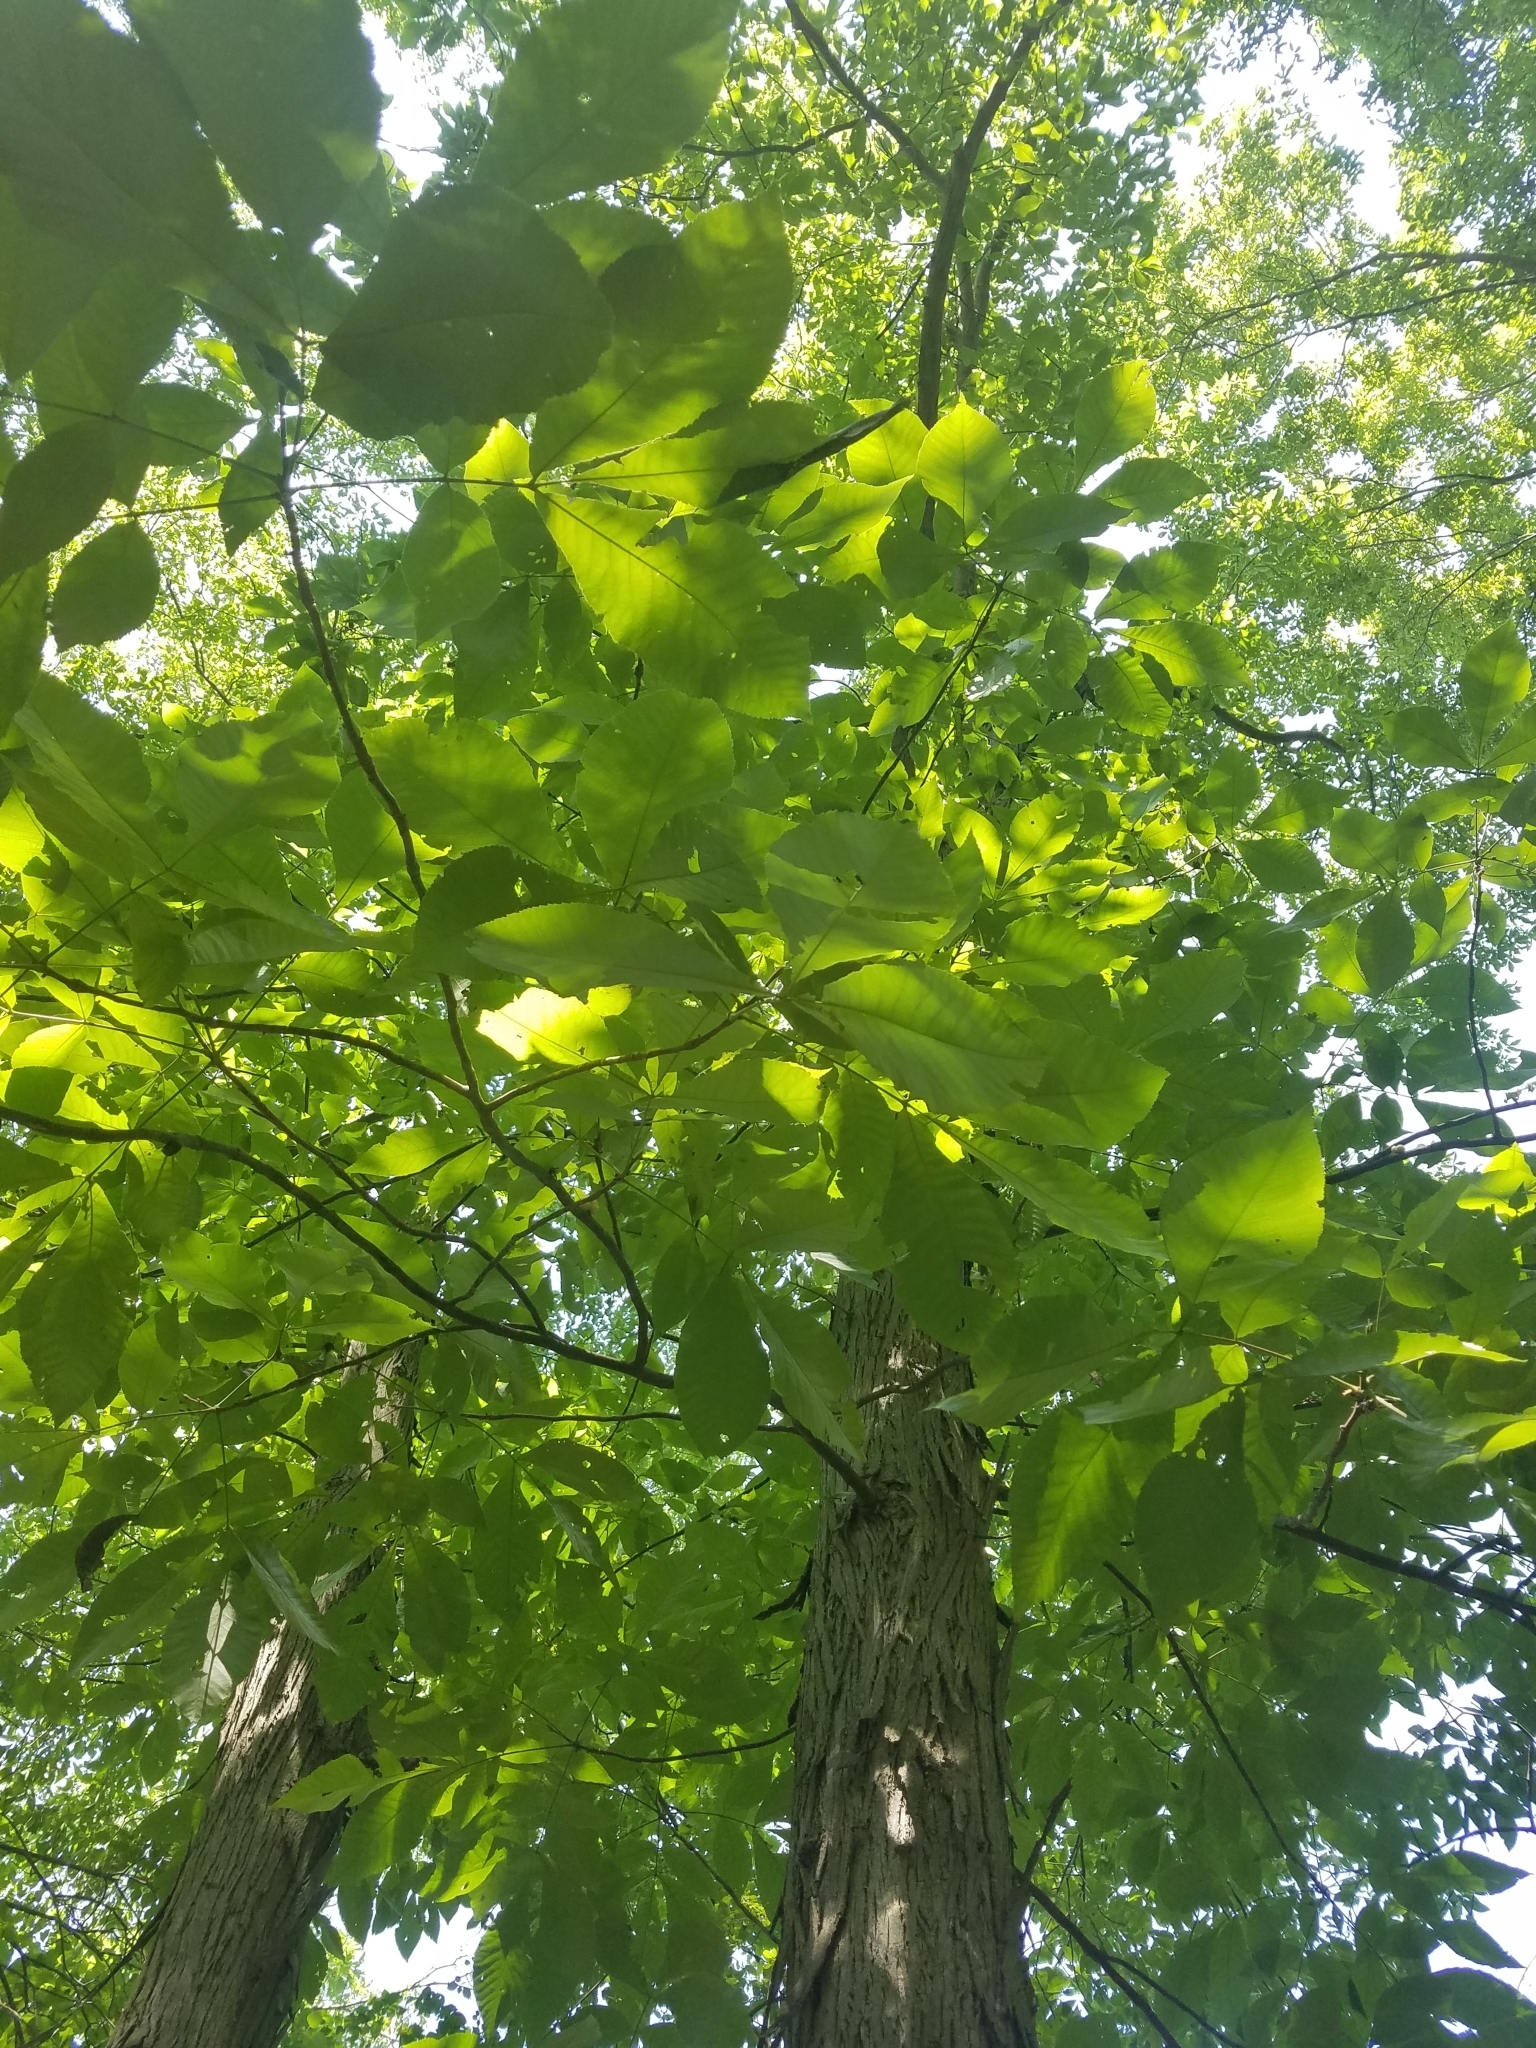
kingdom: Plantae
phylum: Tracheophyta
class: Magnoliopsida
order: Fagales
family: Juglandaceae
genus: Carya
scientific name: Carya ovata
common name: Shagbark hickory
